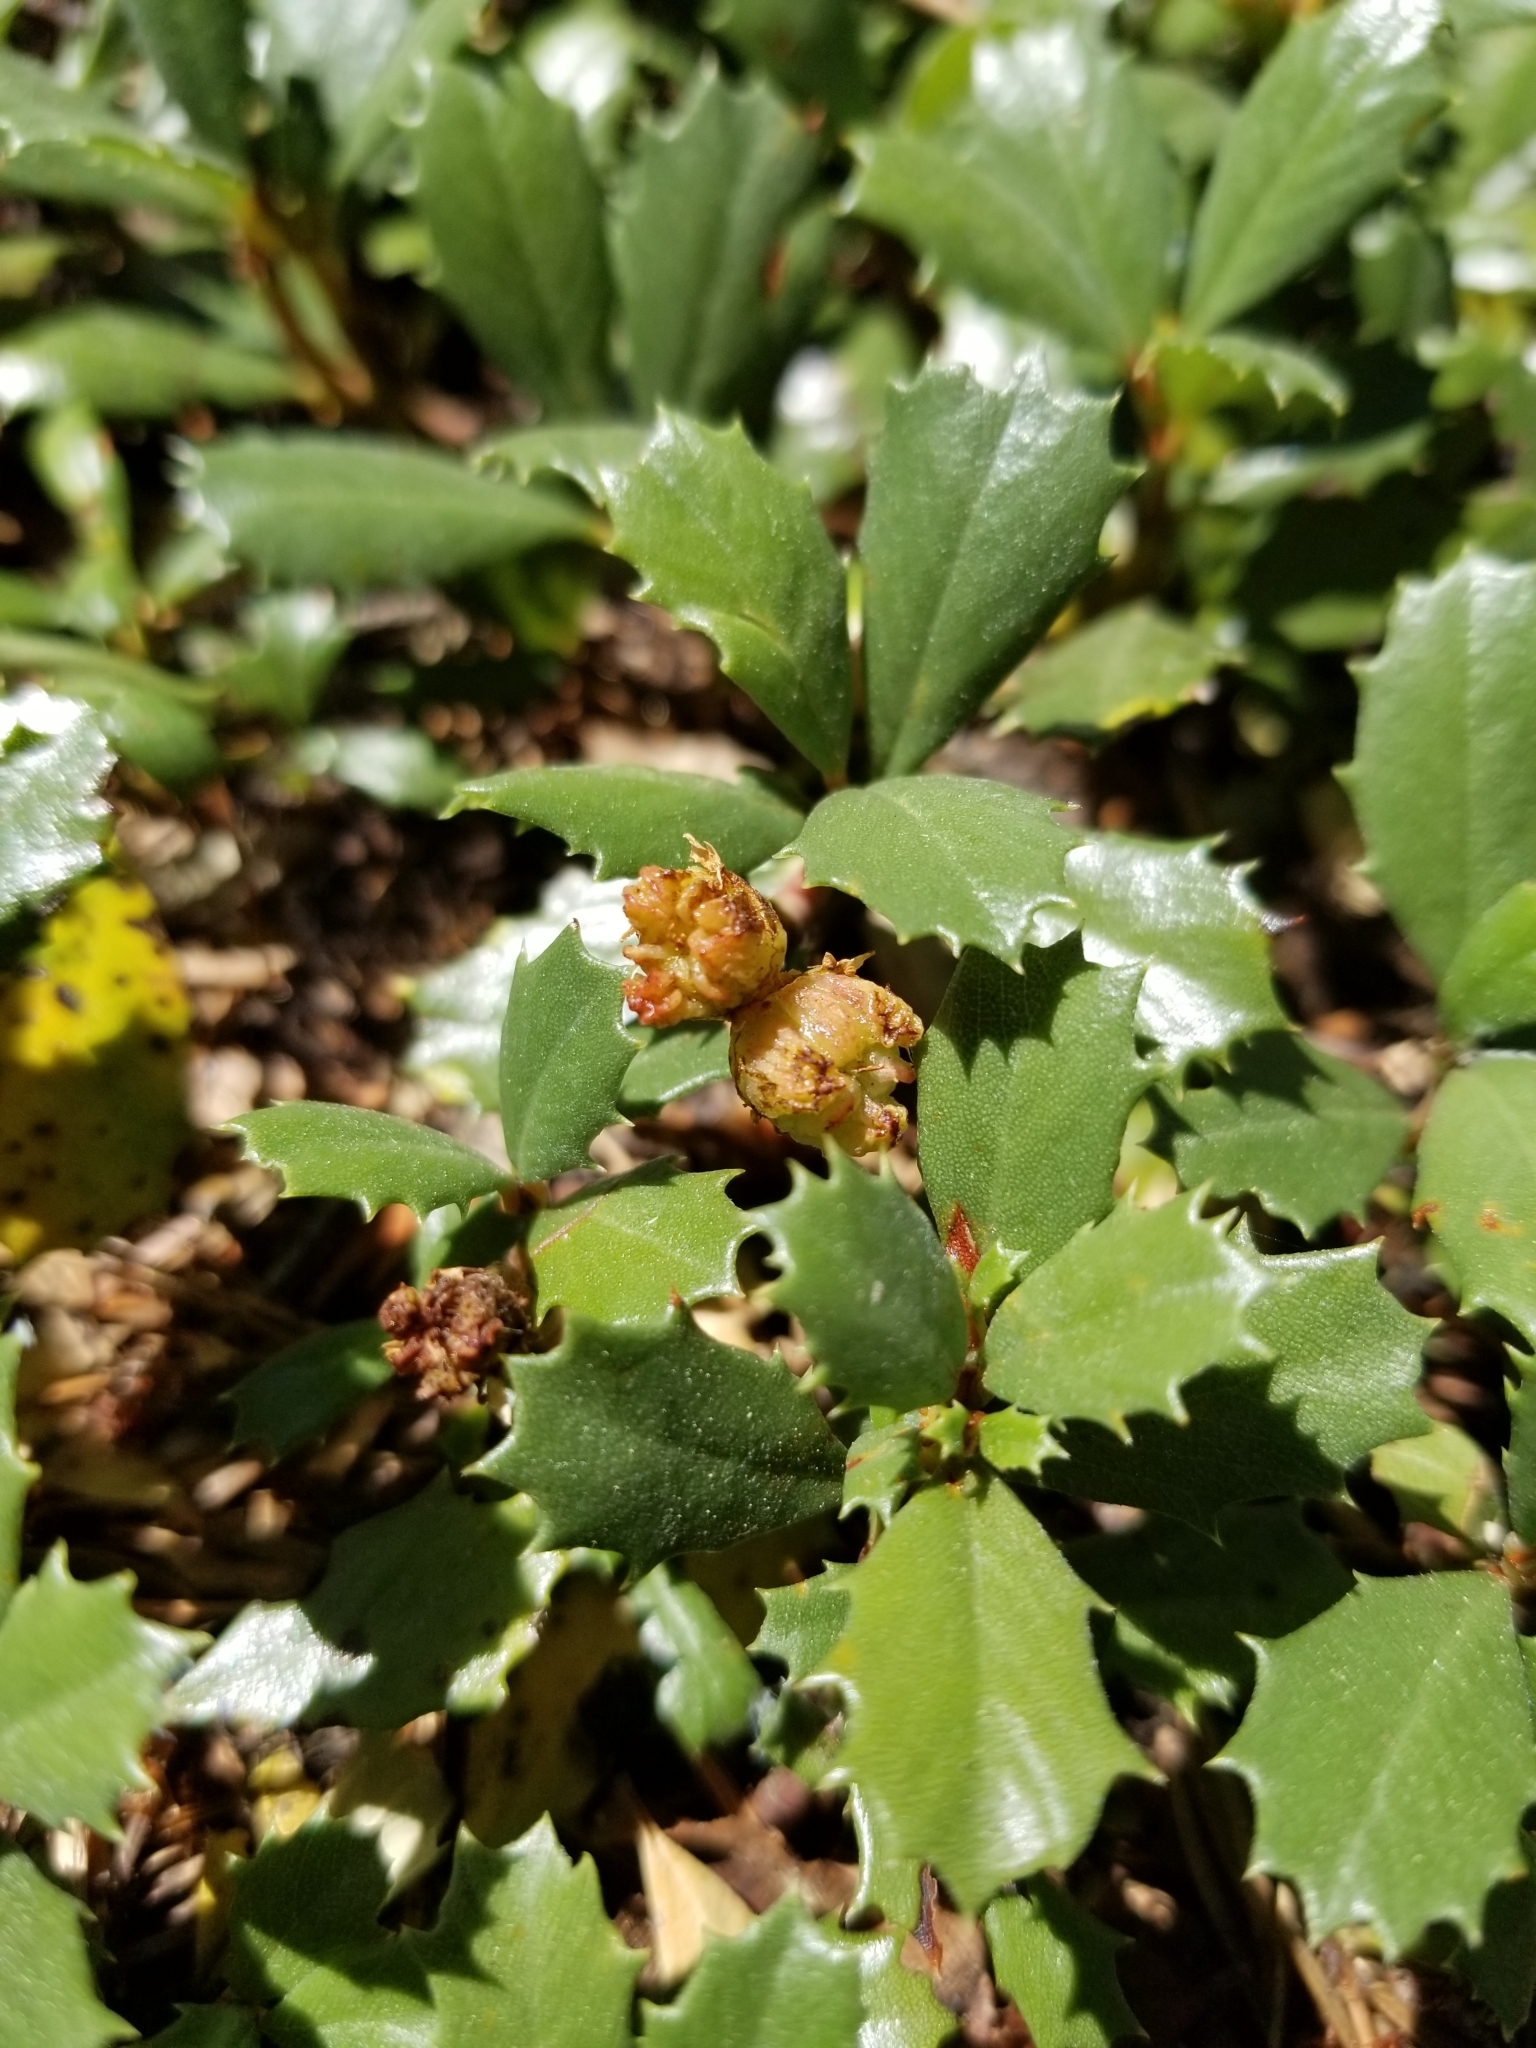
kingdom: Plantae
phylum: Tracheophyta
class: Magnoliopsida
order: Rosales
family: Rhamnaceae
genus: Ceanothus
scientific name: Ceanothus prostratus
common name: Mahala-mat
